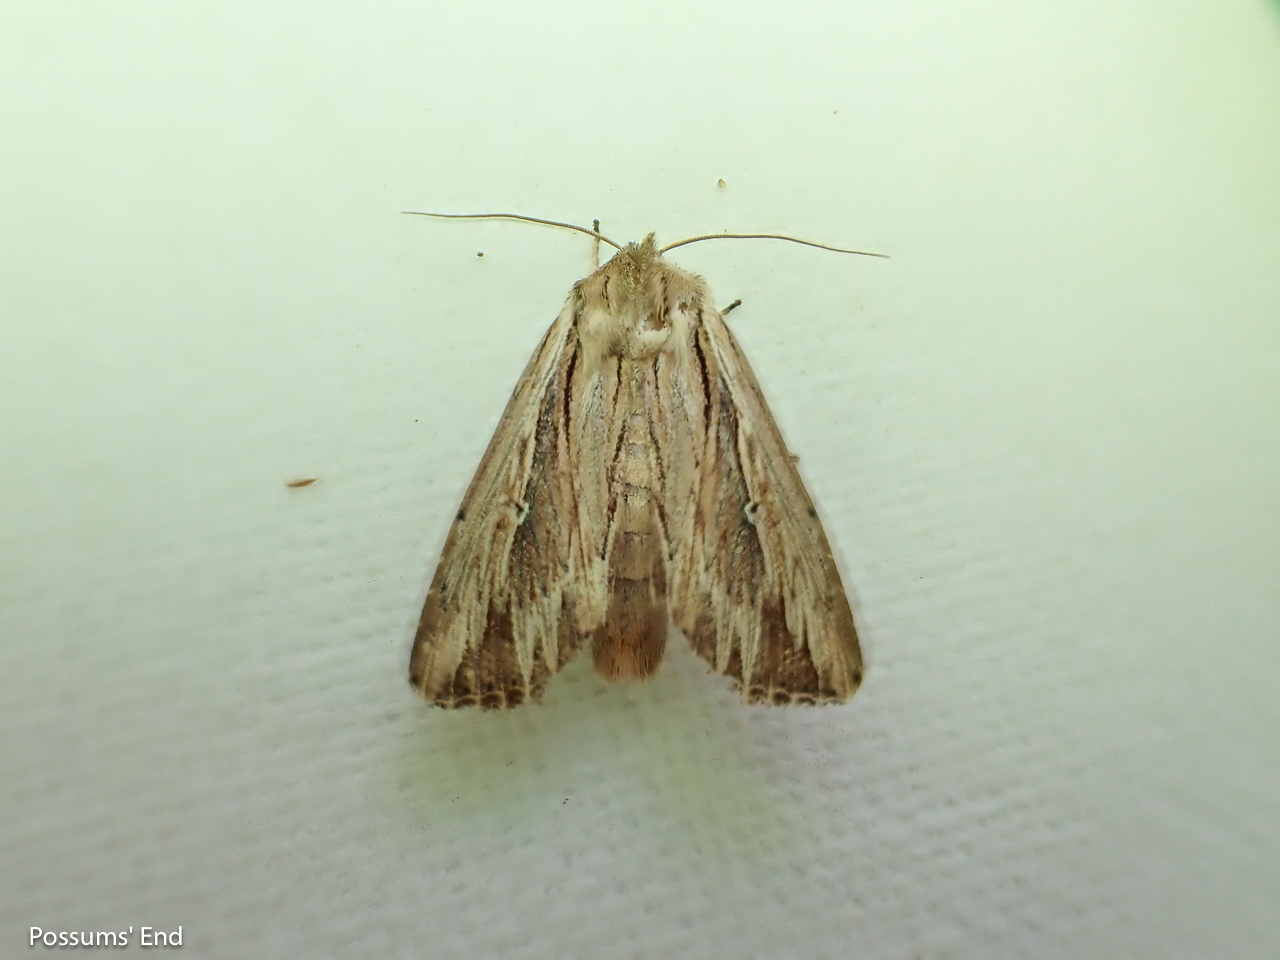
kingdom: Animalia
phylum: Arthropoda
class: Insecta
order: Lepidoptera
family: Noctuidae
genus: Persectania
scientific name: Persectania aversa
